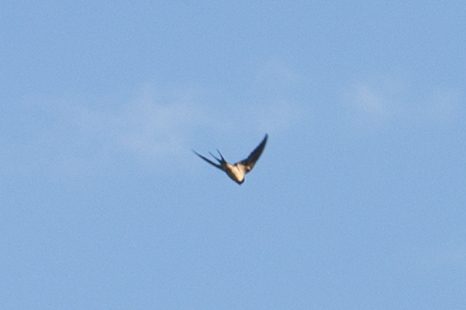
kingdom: Animalia
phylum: Chordata
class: Aves
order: Passeriformes
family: Hirundinidae
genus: Hirundo
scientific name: Hirundo rustica
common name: Barn swallow
